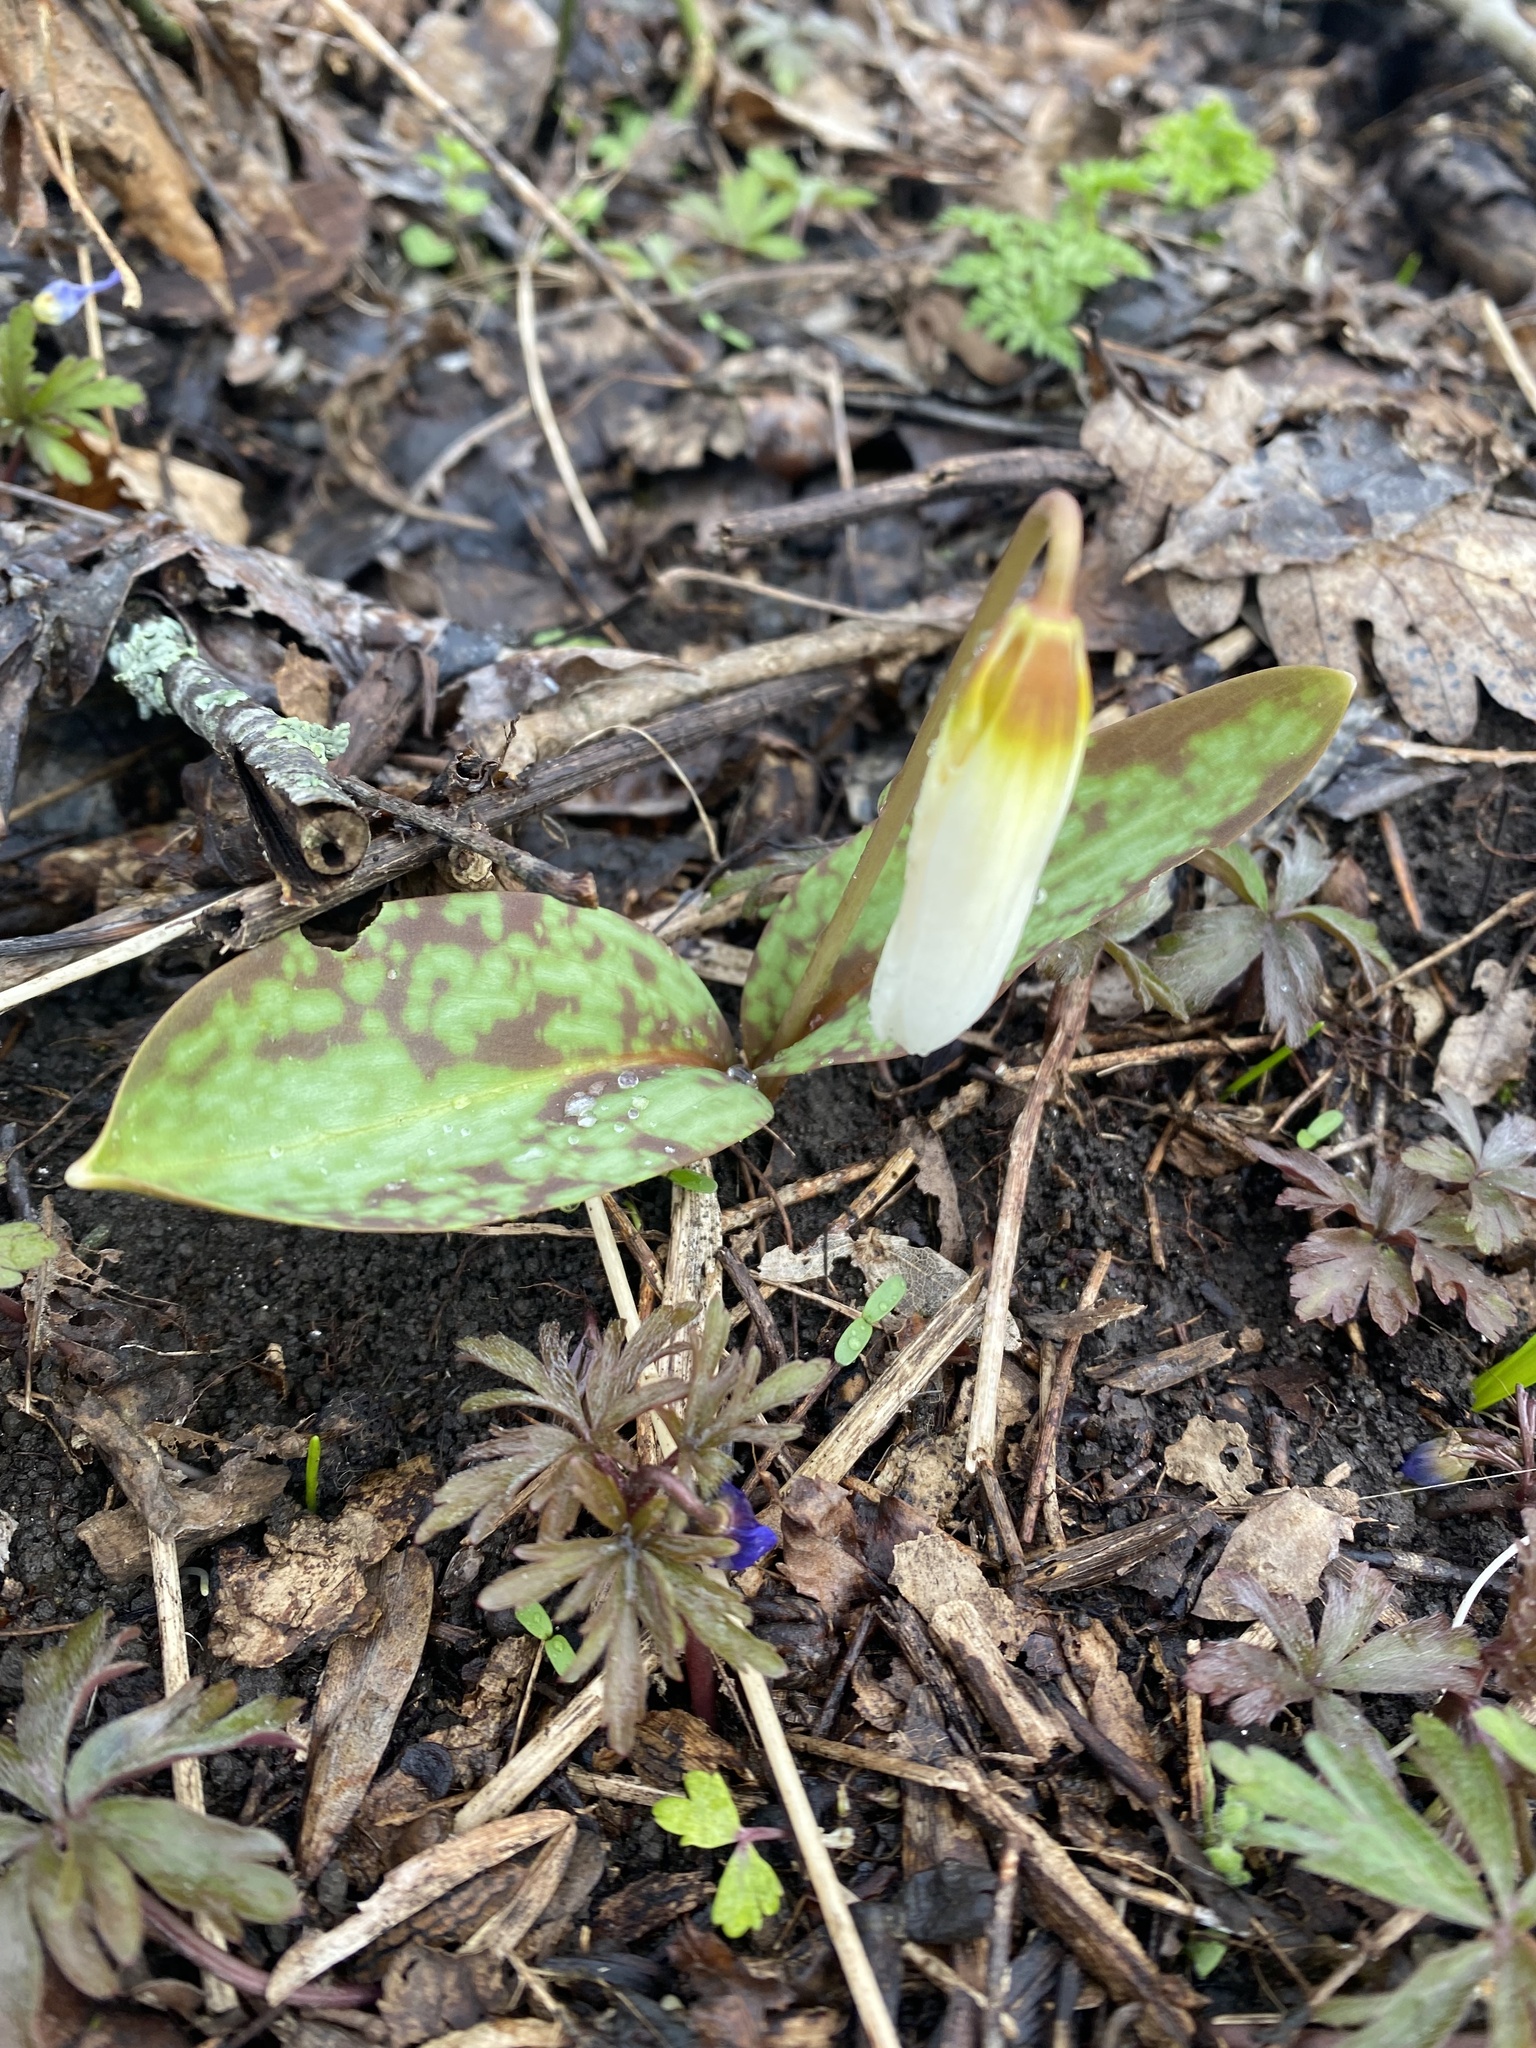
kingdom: Plantae
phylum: Tracheophyta
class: Liliopsida
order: Liliales
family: Liliaceae
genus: Erythronium
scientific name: Erythronium caucasicum
